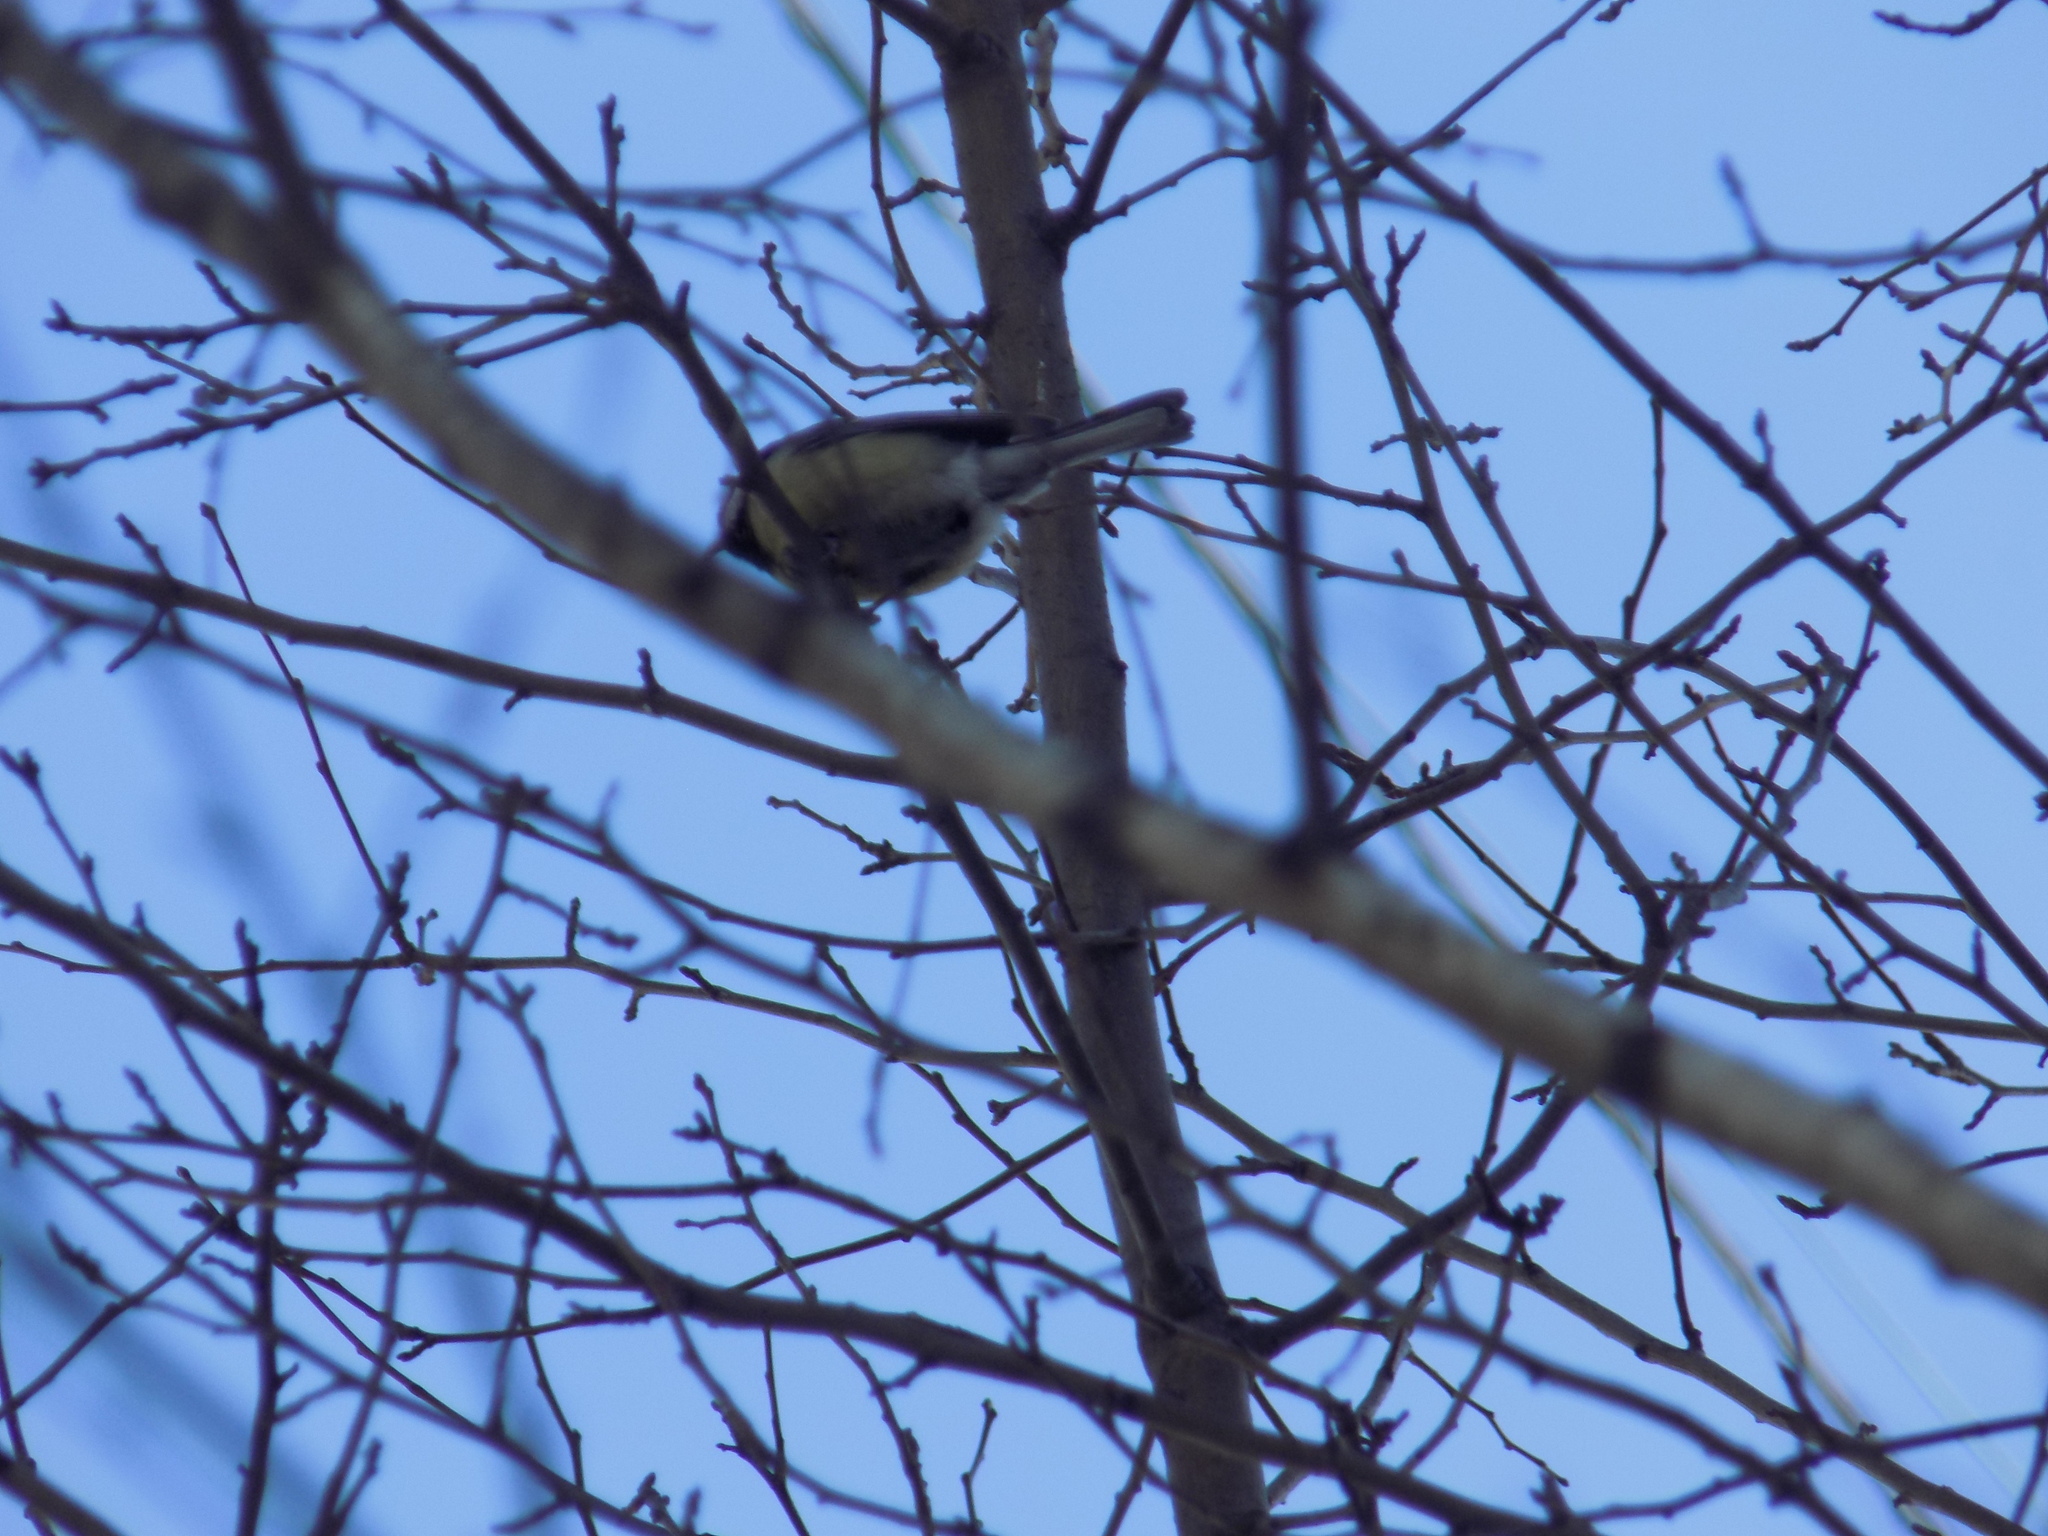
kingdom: Animalia
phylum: Chordata
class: Aves
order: Passeriformes
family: Paridae
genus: Parus
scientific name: Parus major
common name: Great tit
